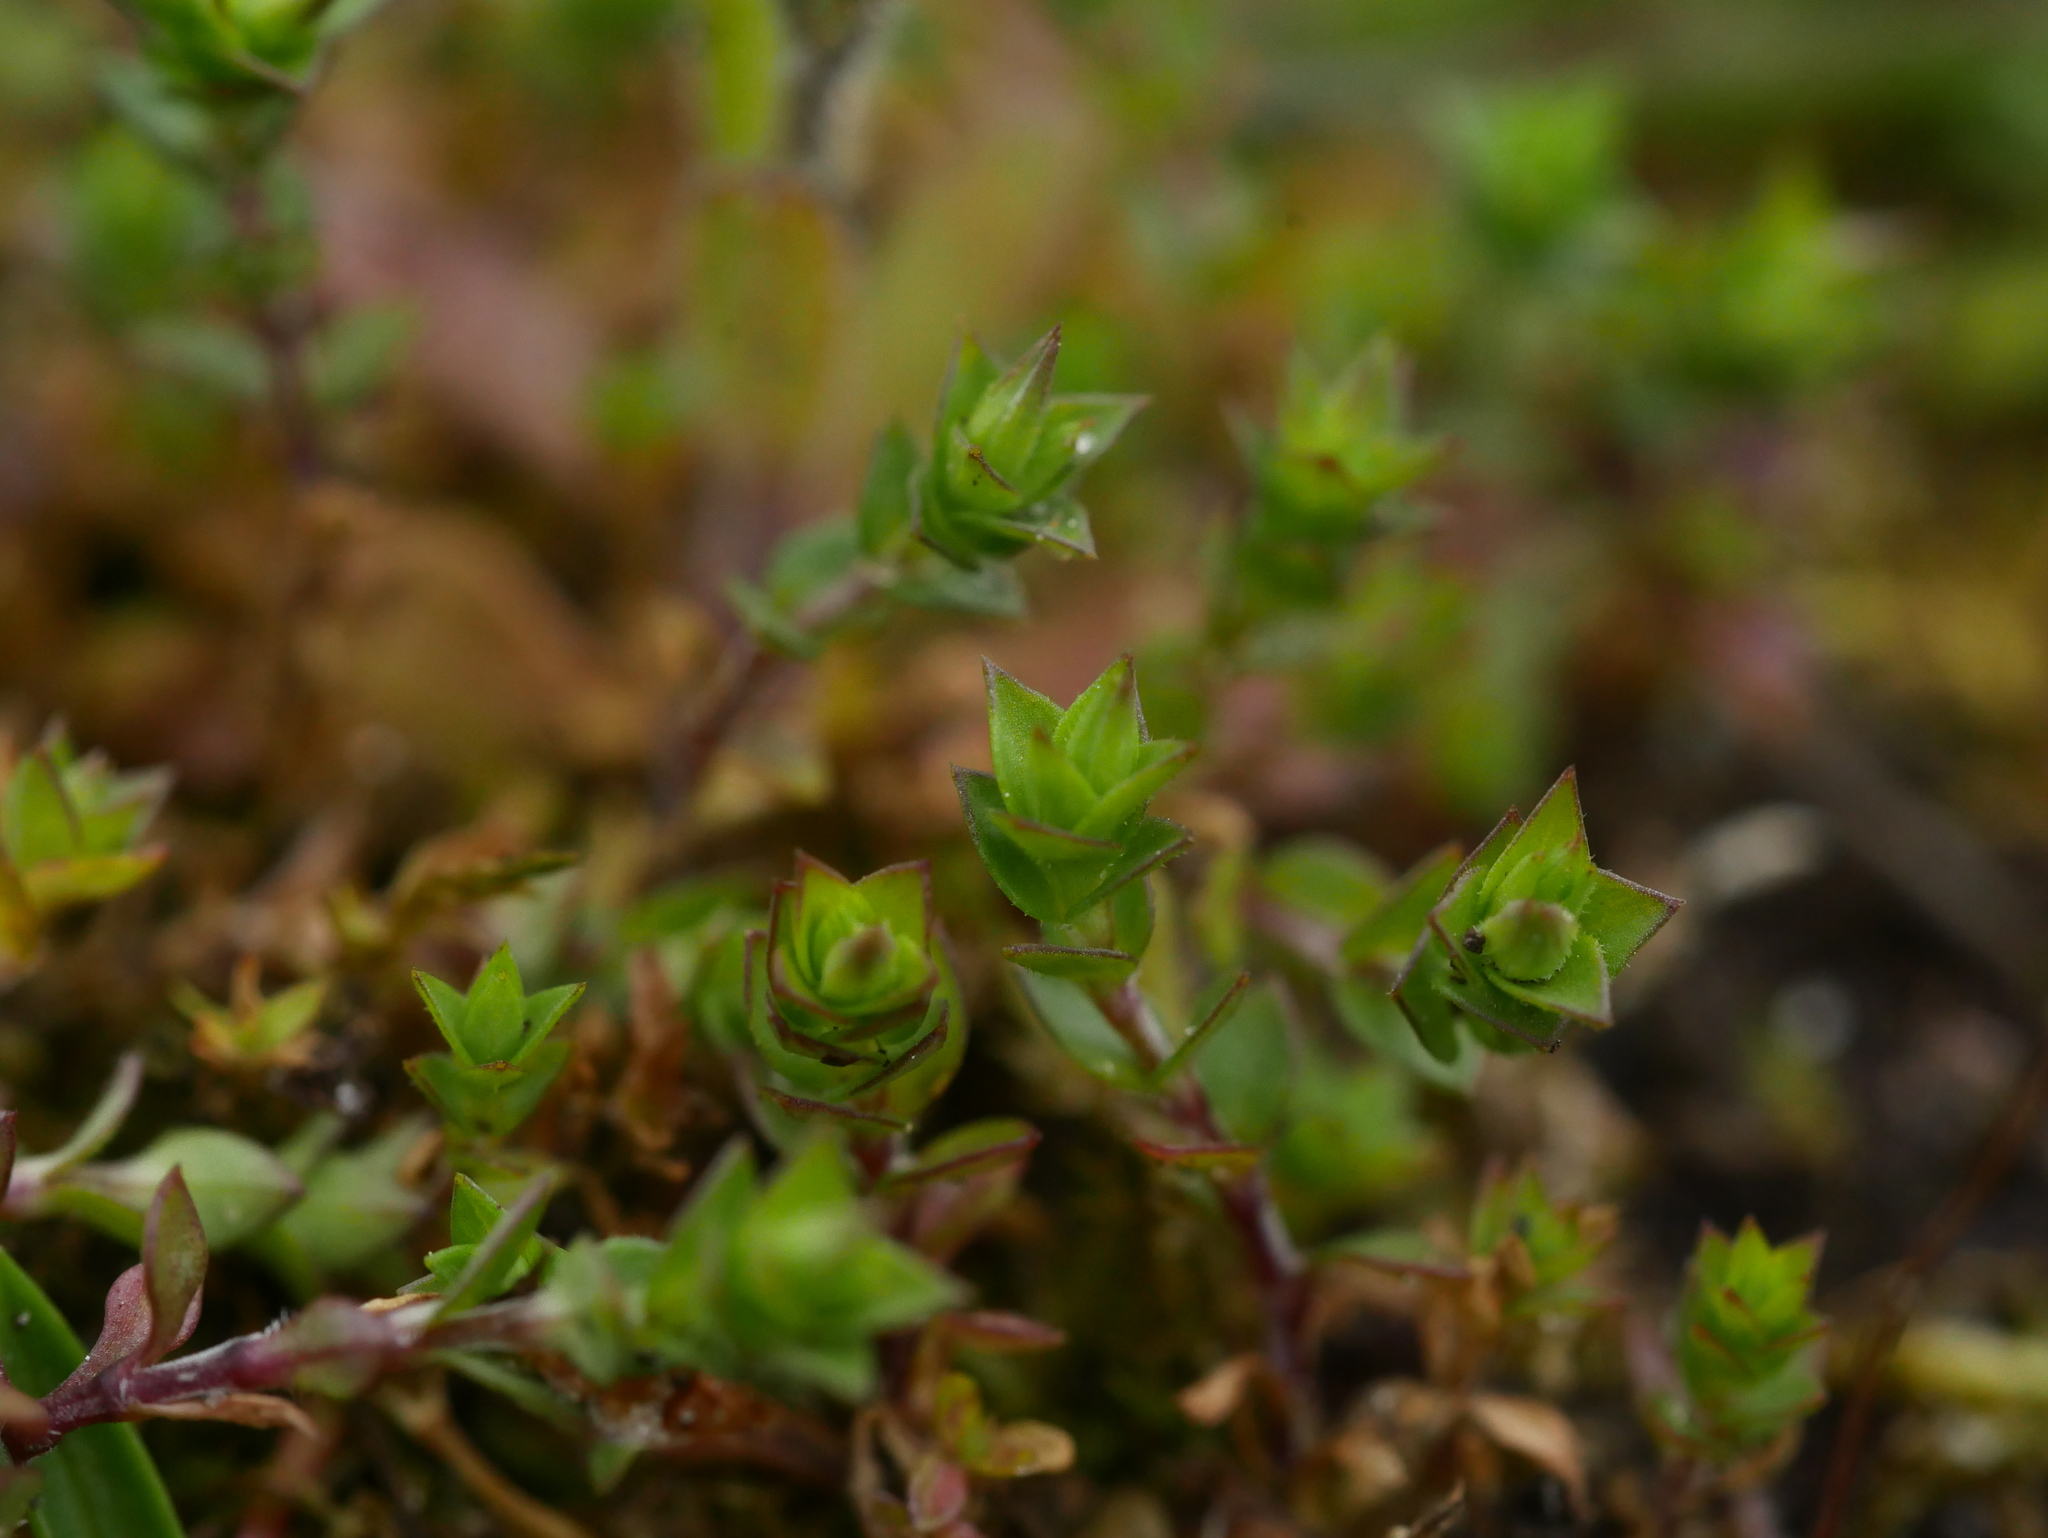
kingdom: Plantae
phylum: Tracheophyta
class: Magnoliopsida
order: Caryophyllales
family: Caryophyllaceae
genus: Arenaria
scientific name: Arenaria serpyllifolia
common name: Thyme-leaved sandwort
